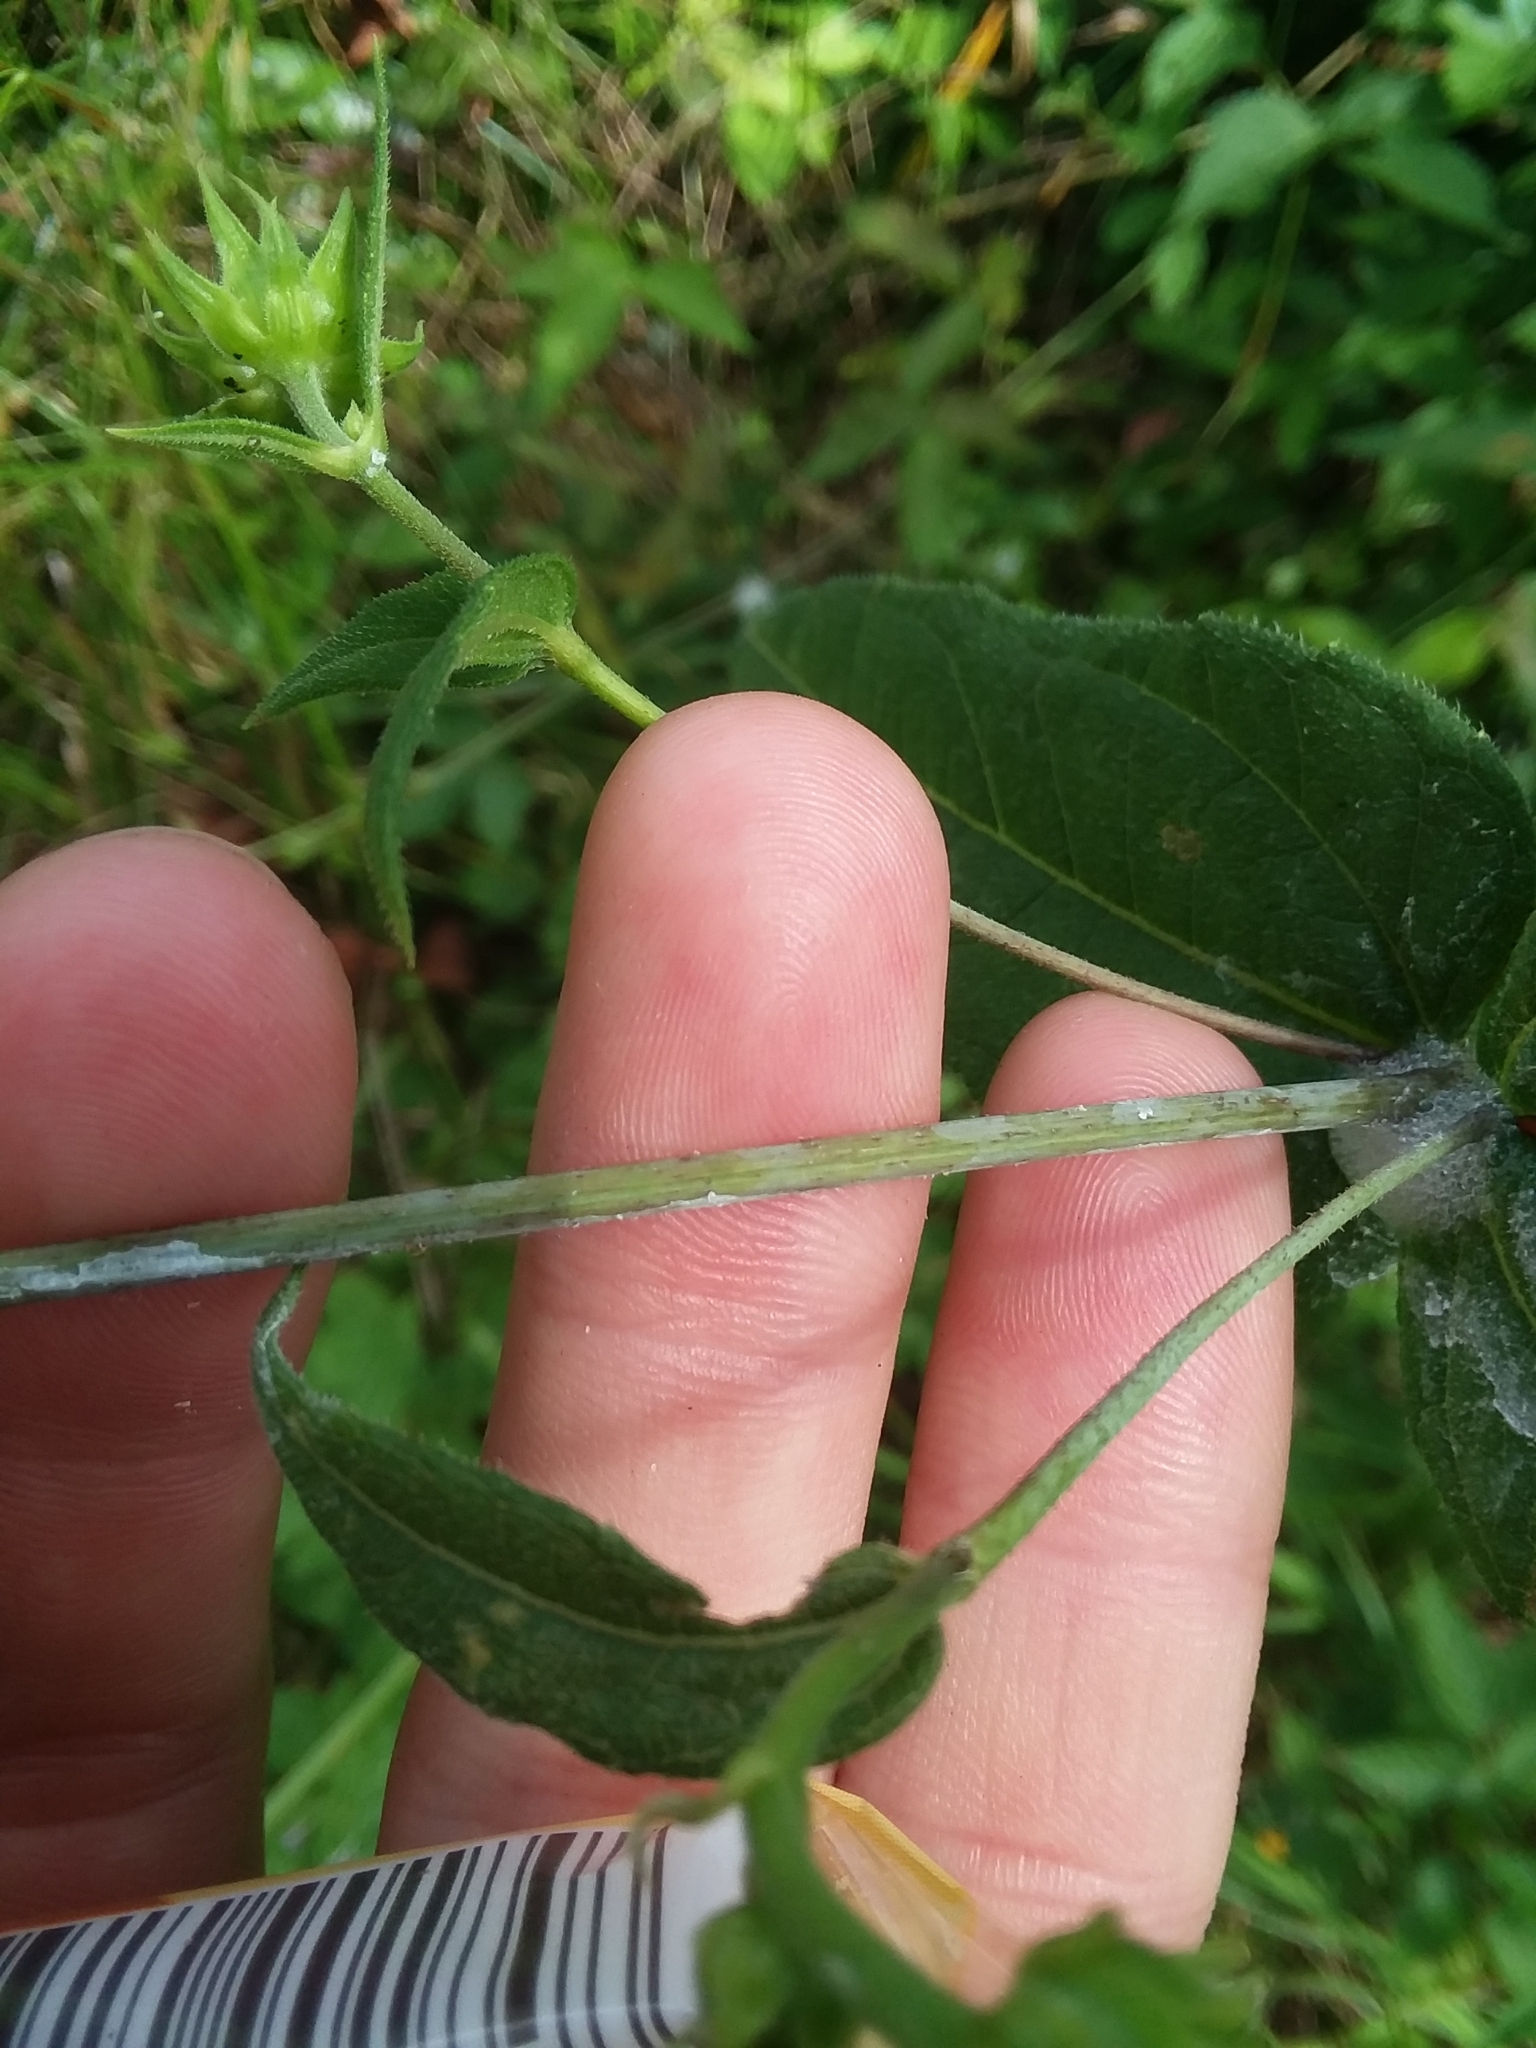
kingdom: Plantae
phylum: Tracheophyta
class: Magnoliopsida
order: Asterales
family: Asteraceae
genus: Helianthus
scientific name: Helianthus divaricatus
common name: Divergent sunflower
